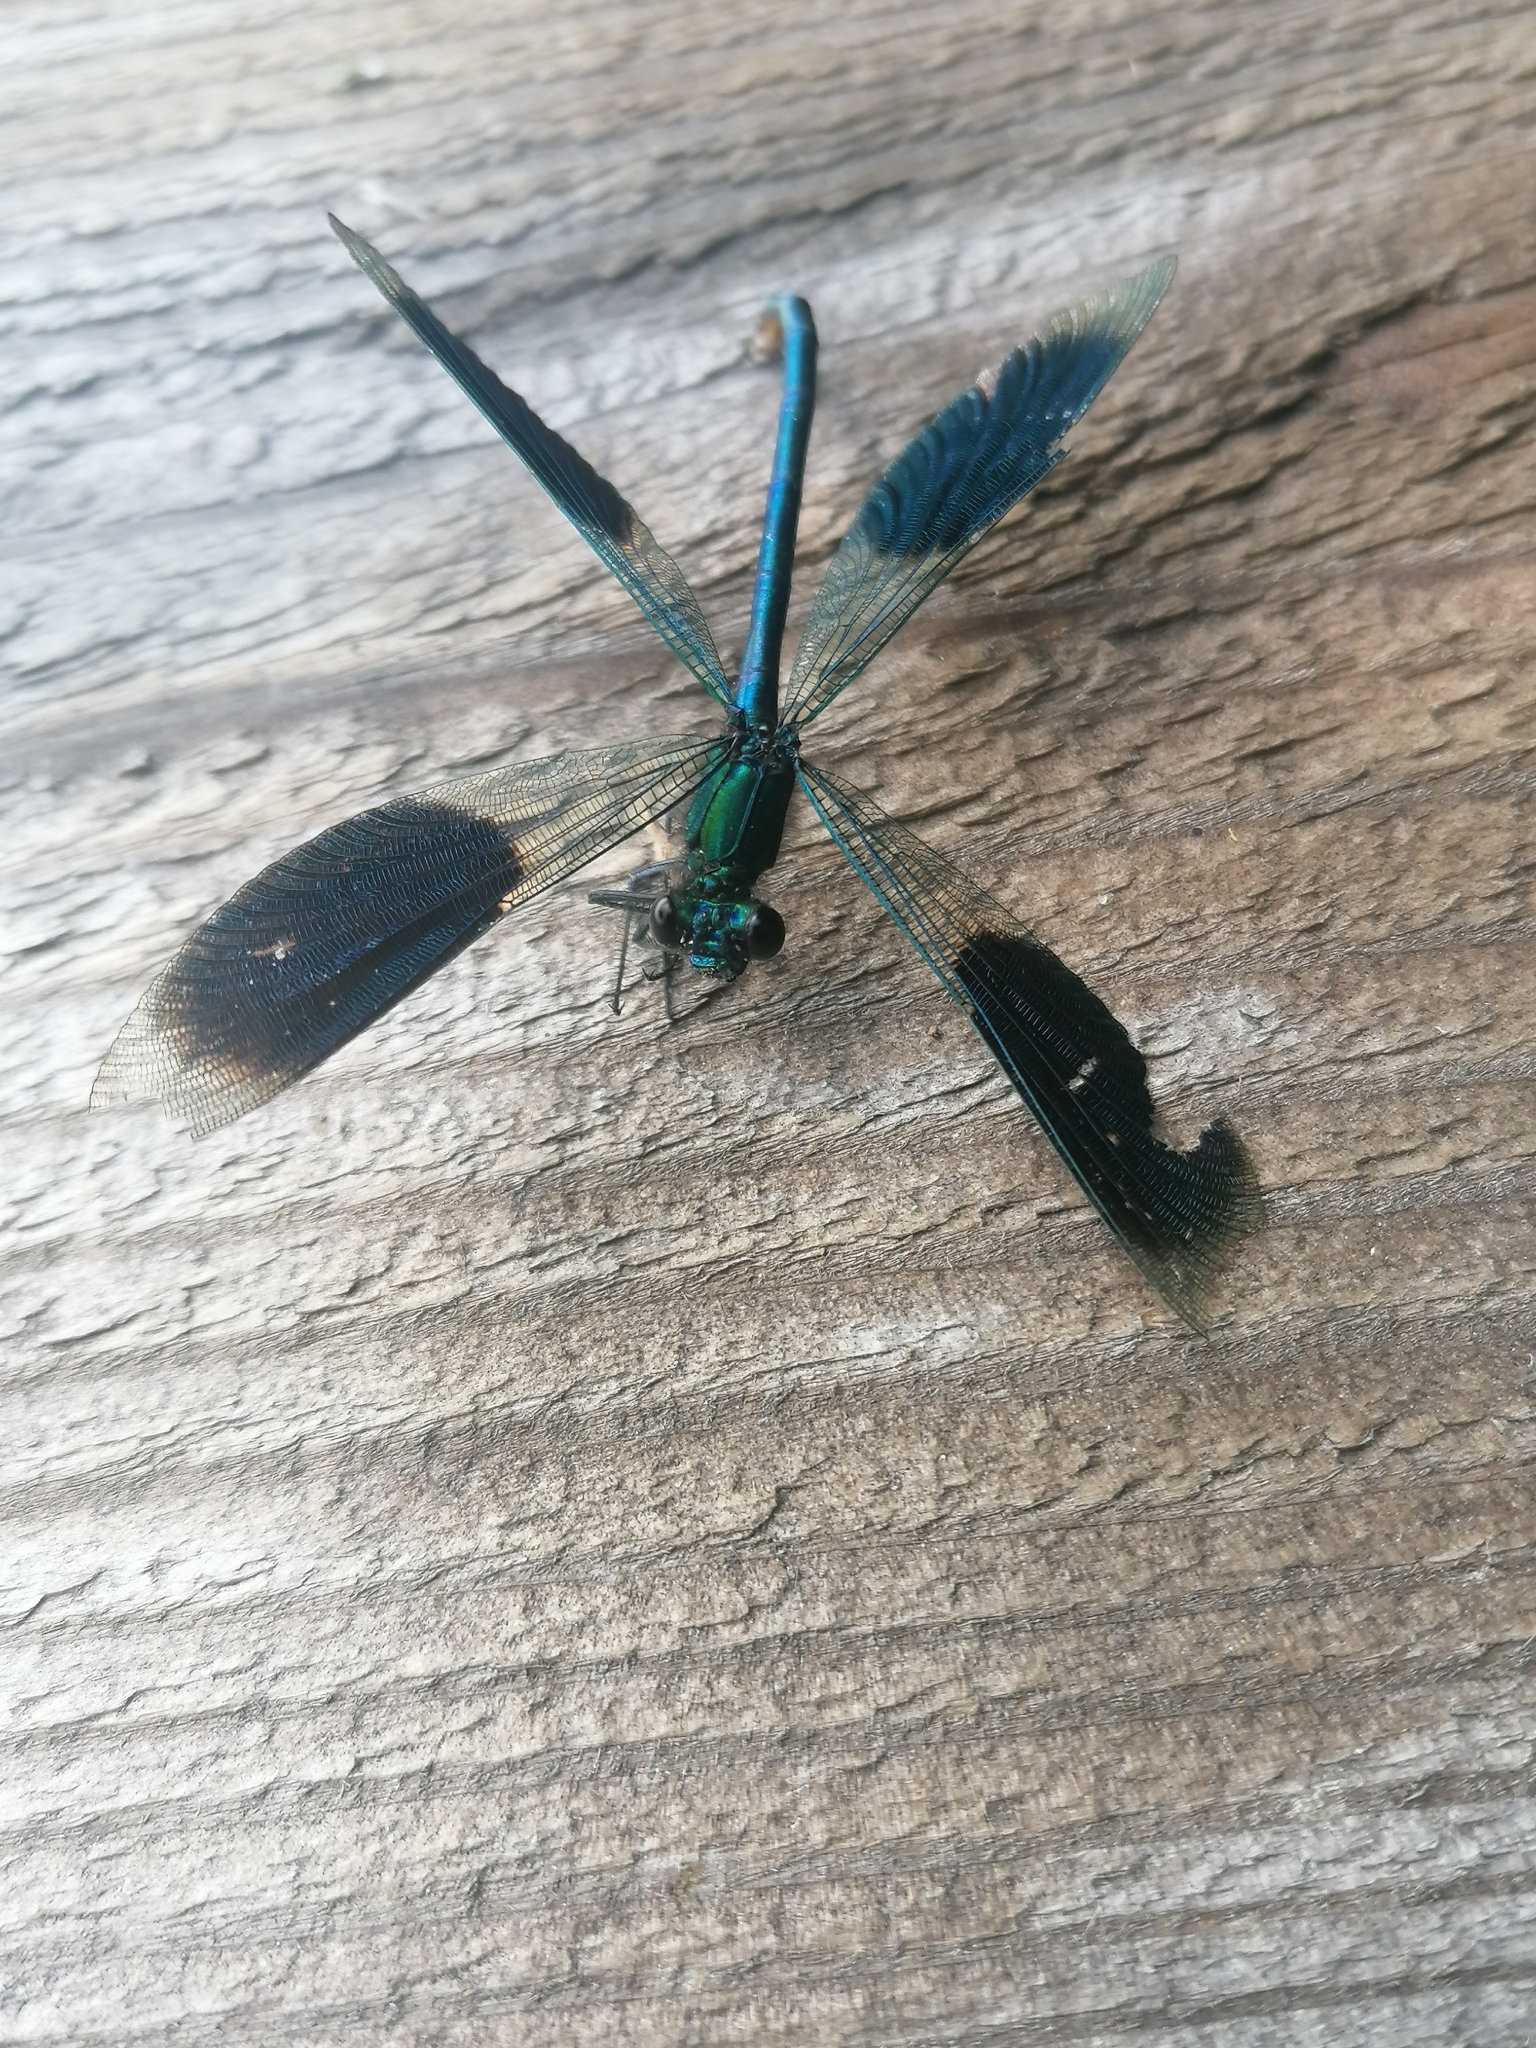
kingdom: Animalia
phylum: Arthropoda
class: Insecta
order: Odonata
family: Calopterygidae
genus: Calopteryx
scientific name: Calopteryx splendens
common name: Banded demoiselle
